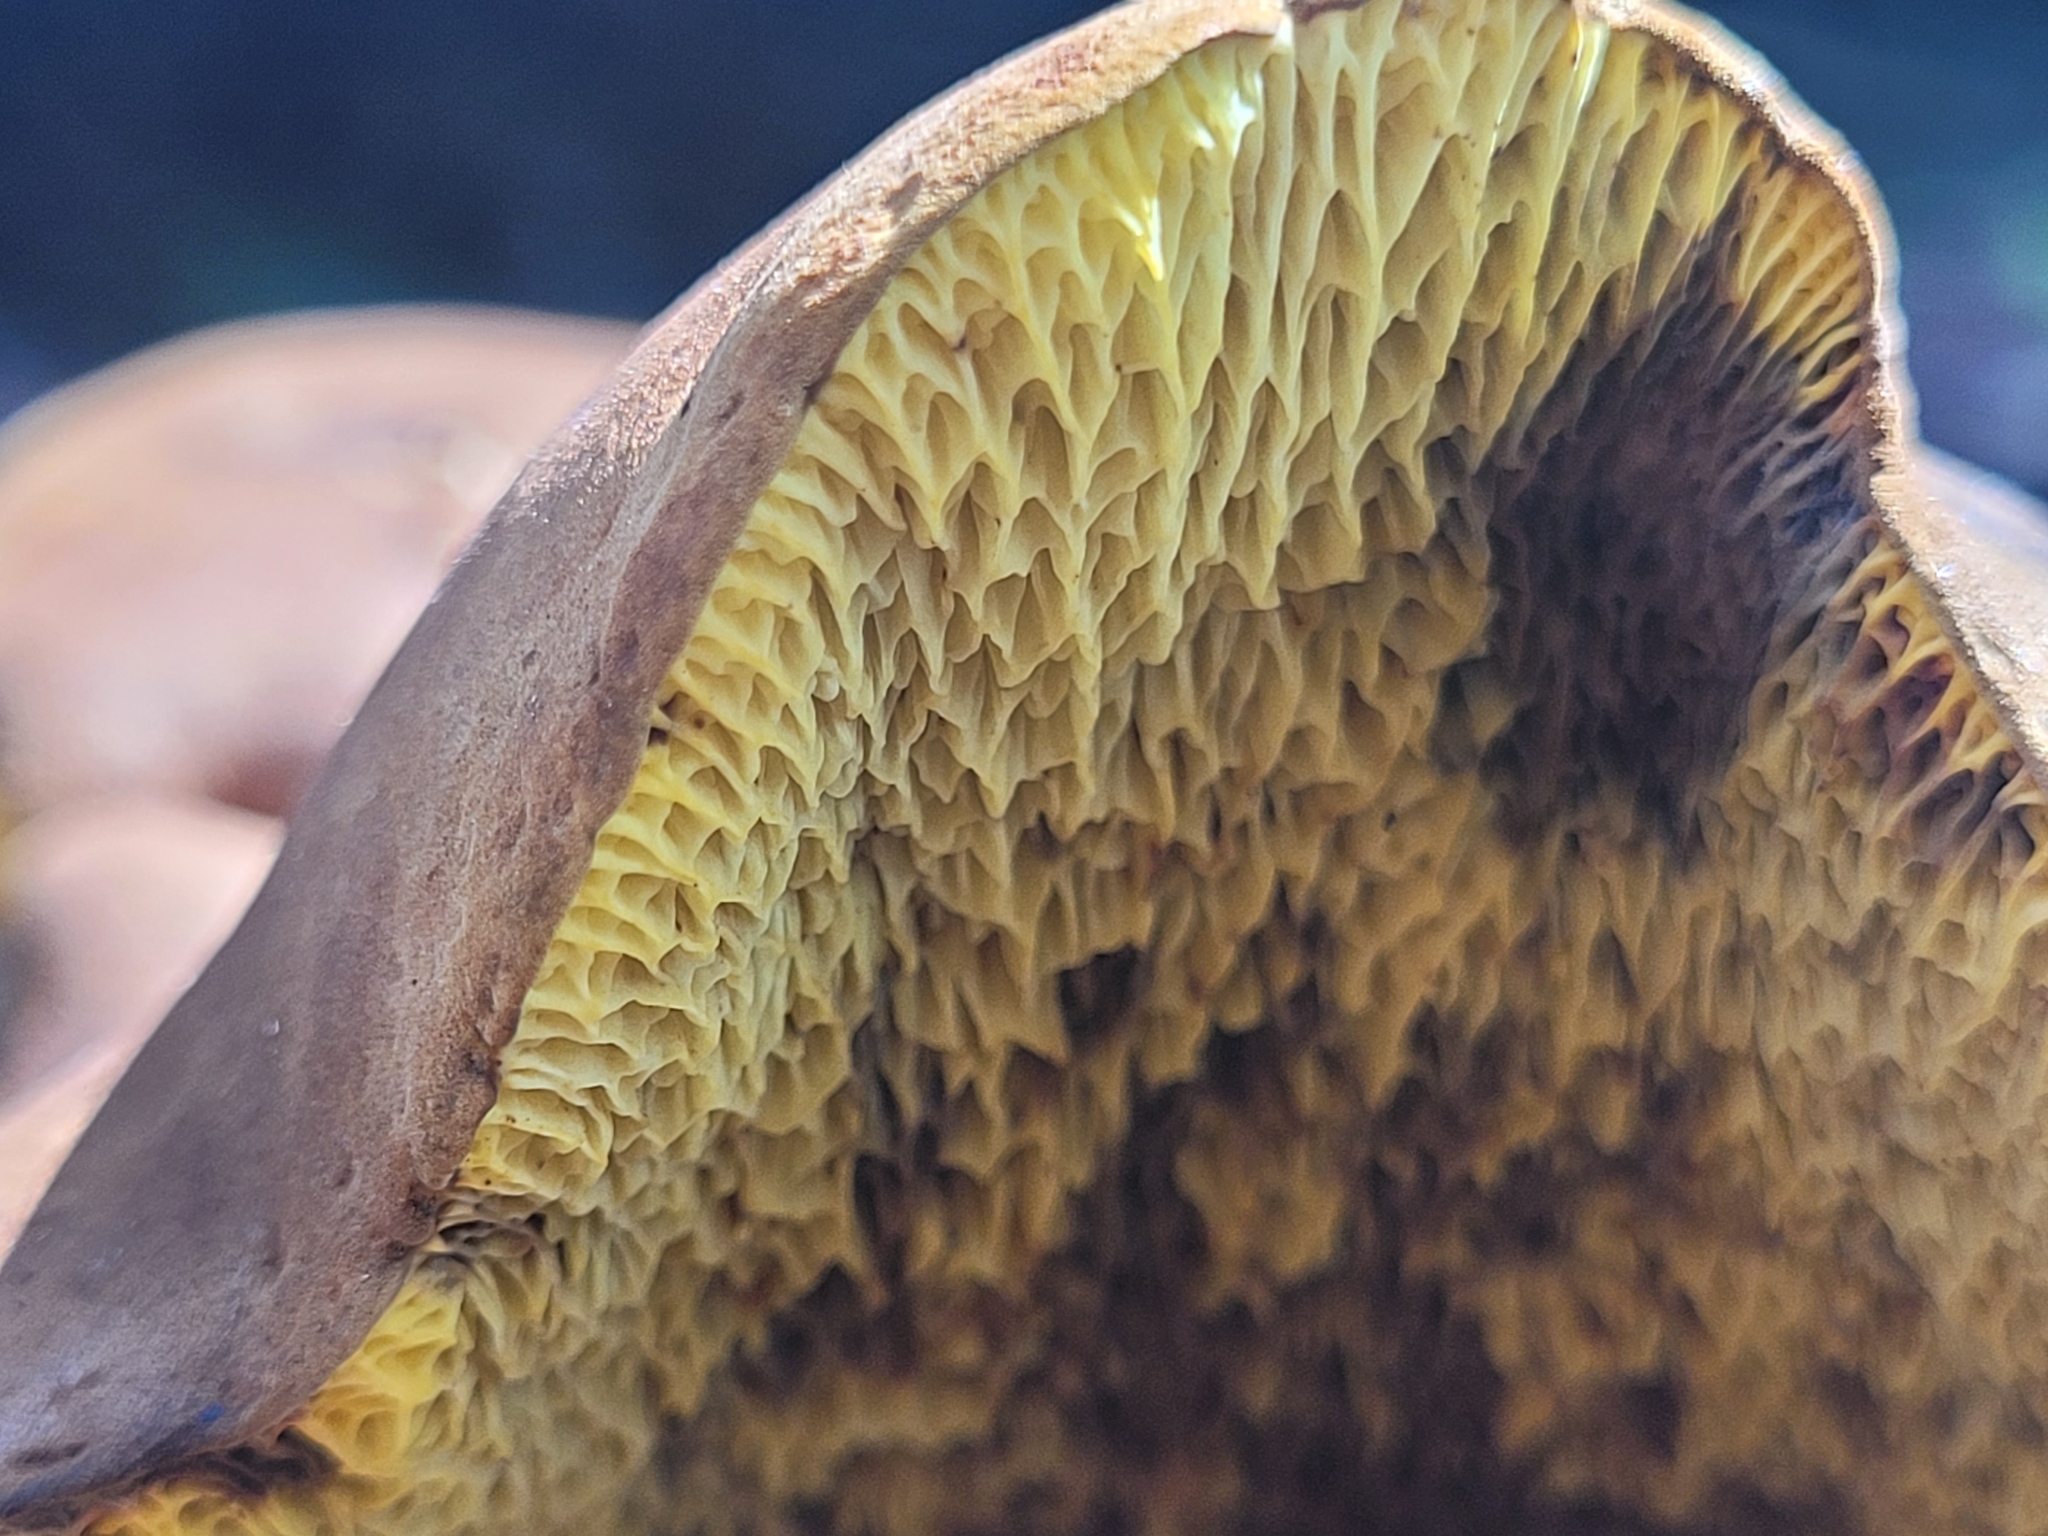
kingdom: Fungi
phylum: Basidiomycota
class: Agaricomycetes
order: Boletales
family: Boletinellaceae
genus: Boletinellus
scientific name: Boletinellus merulioides
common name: Ash tree bolete
